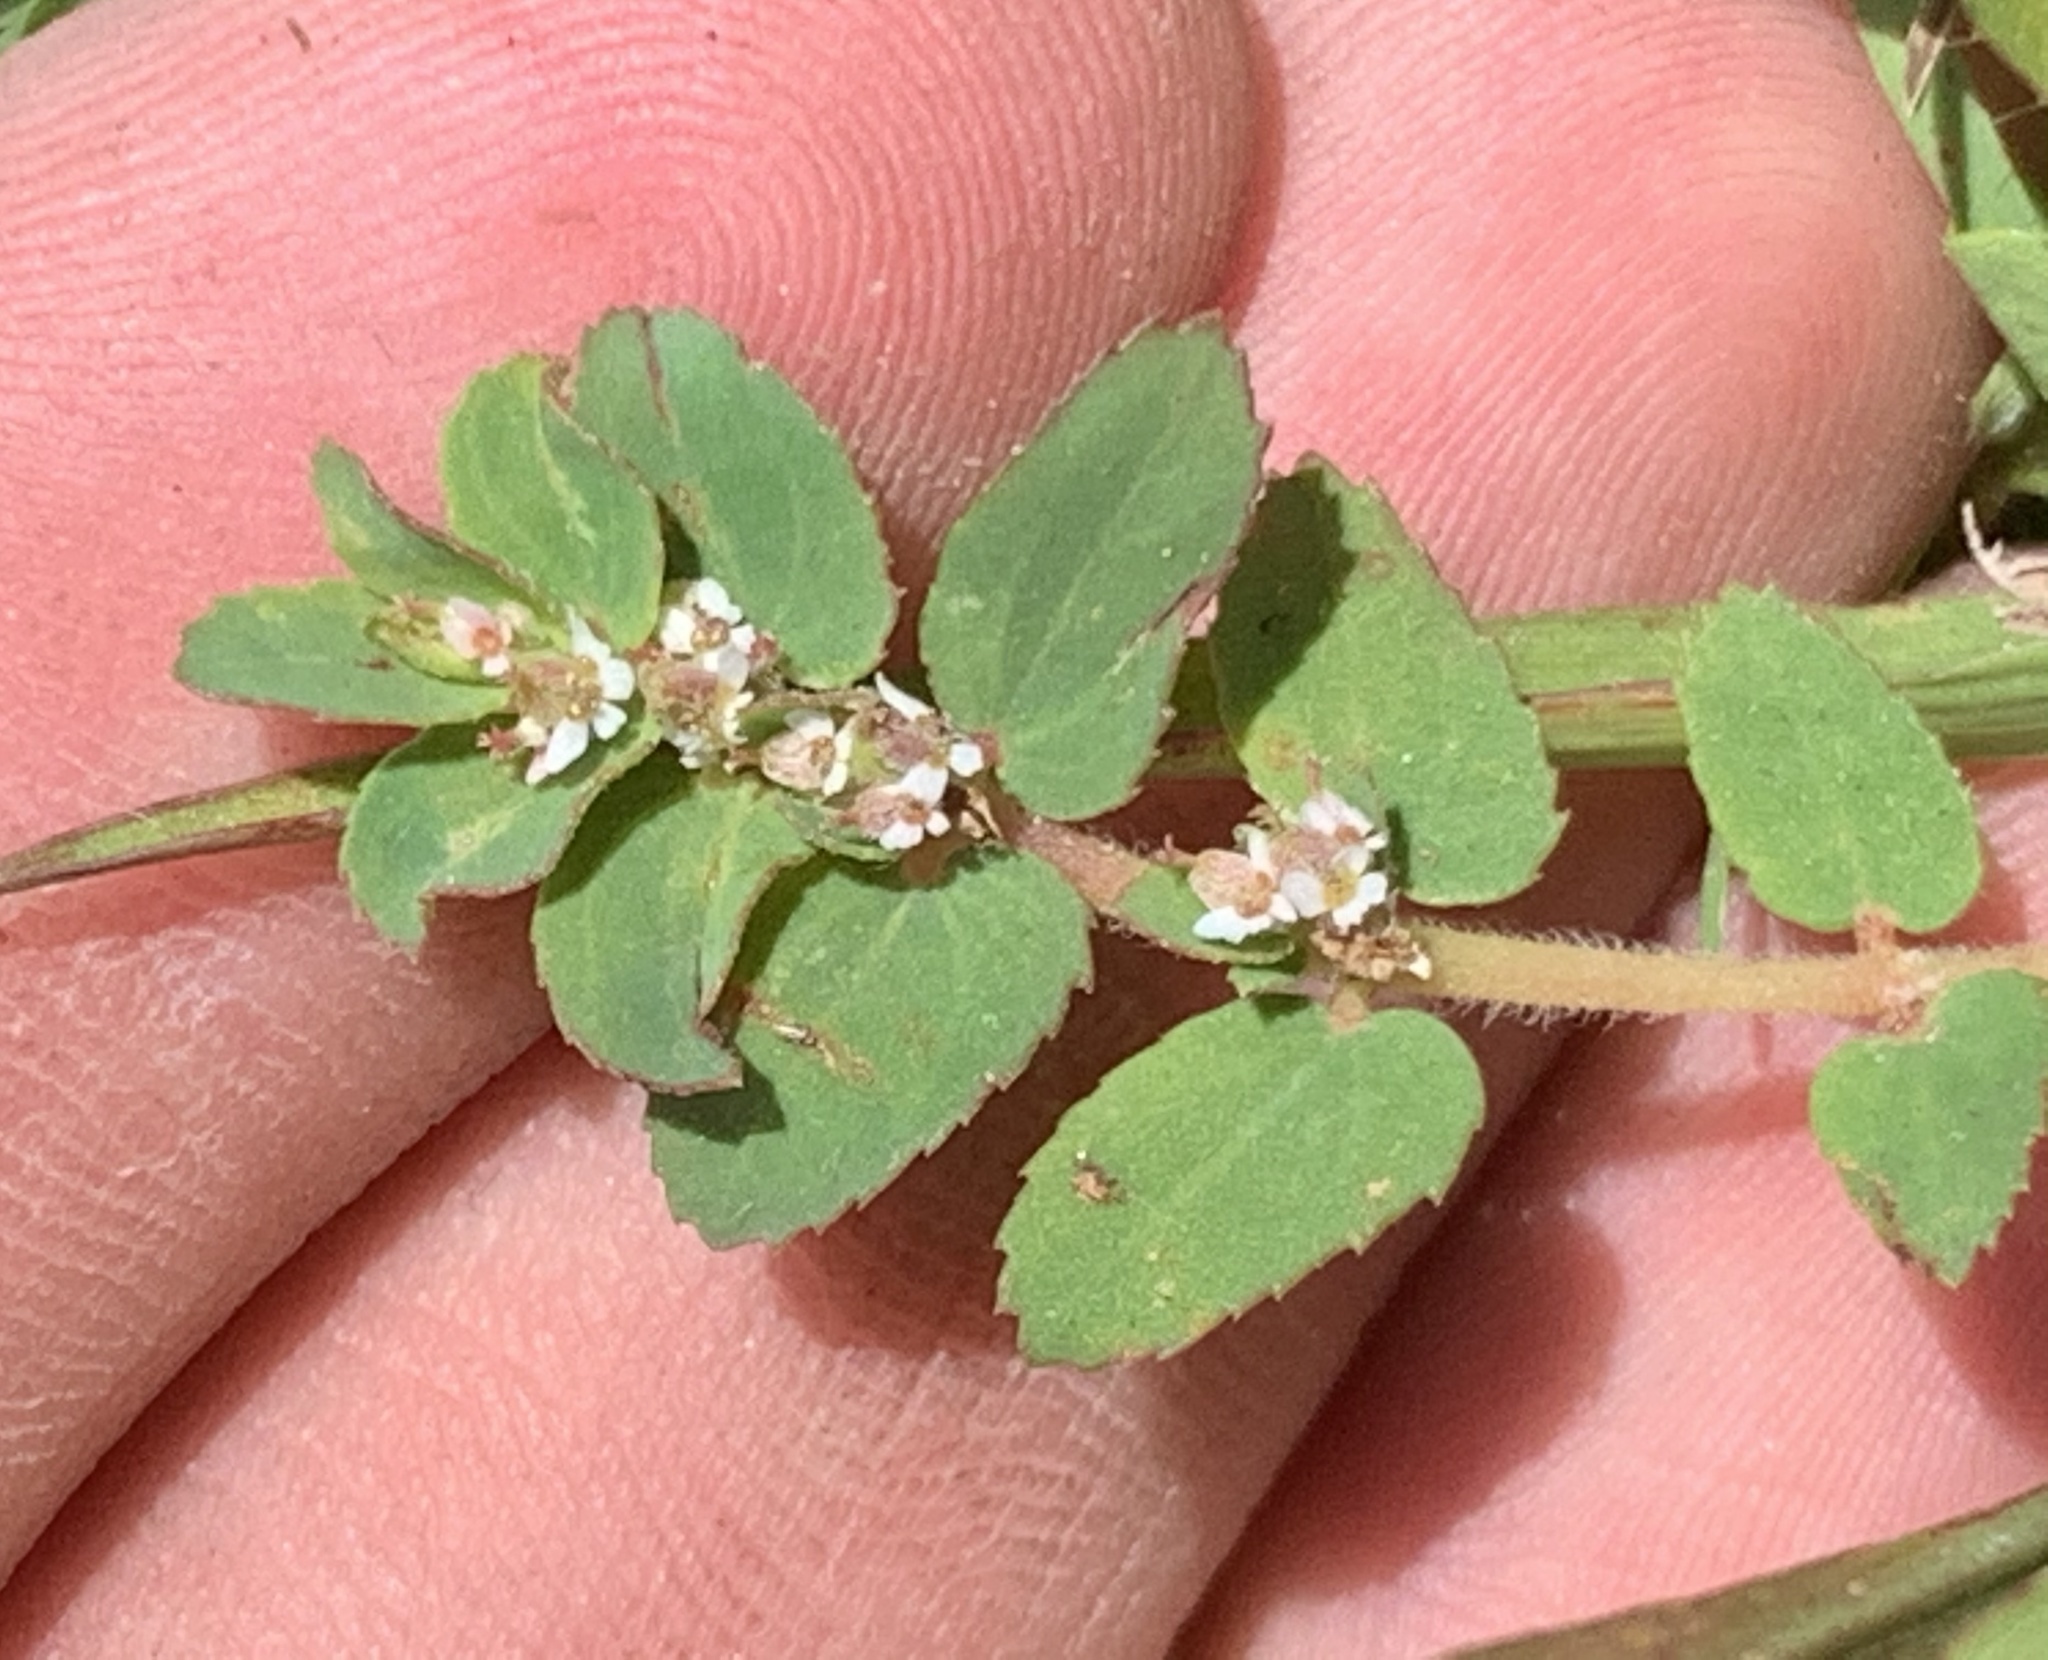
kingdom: Plantae
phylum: Tracheophyta
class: Magnoliopsida
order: Malpighiales
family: Euphorbiaceae
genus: Euphorbia
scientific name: Euphorbia thymifolia
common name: Gulf sandmat
